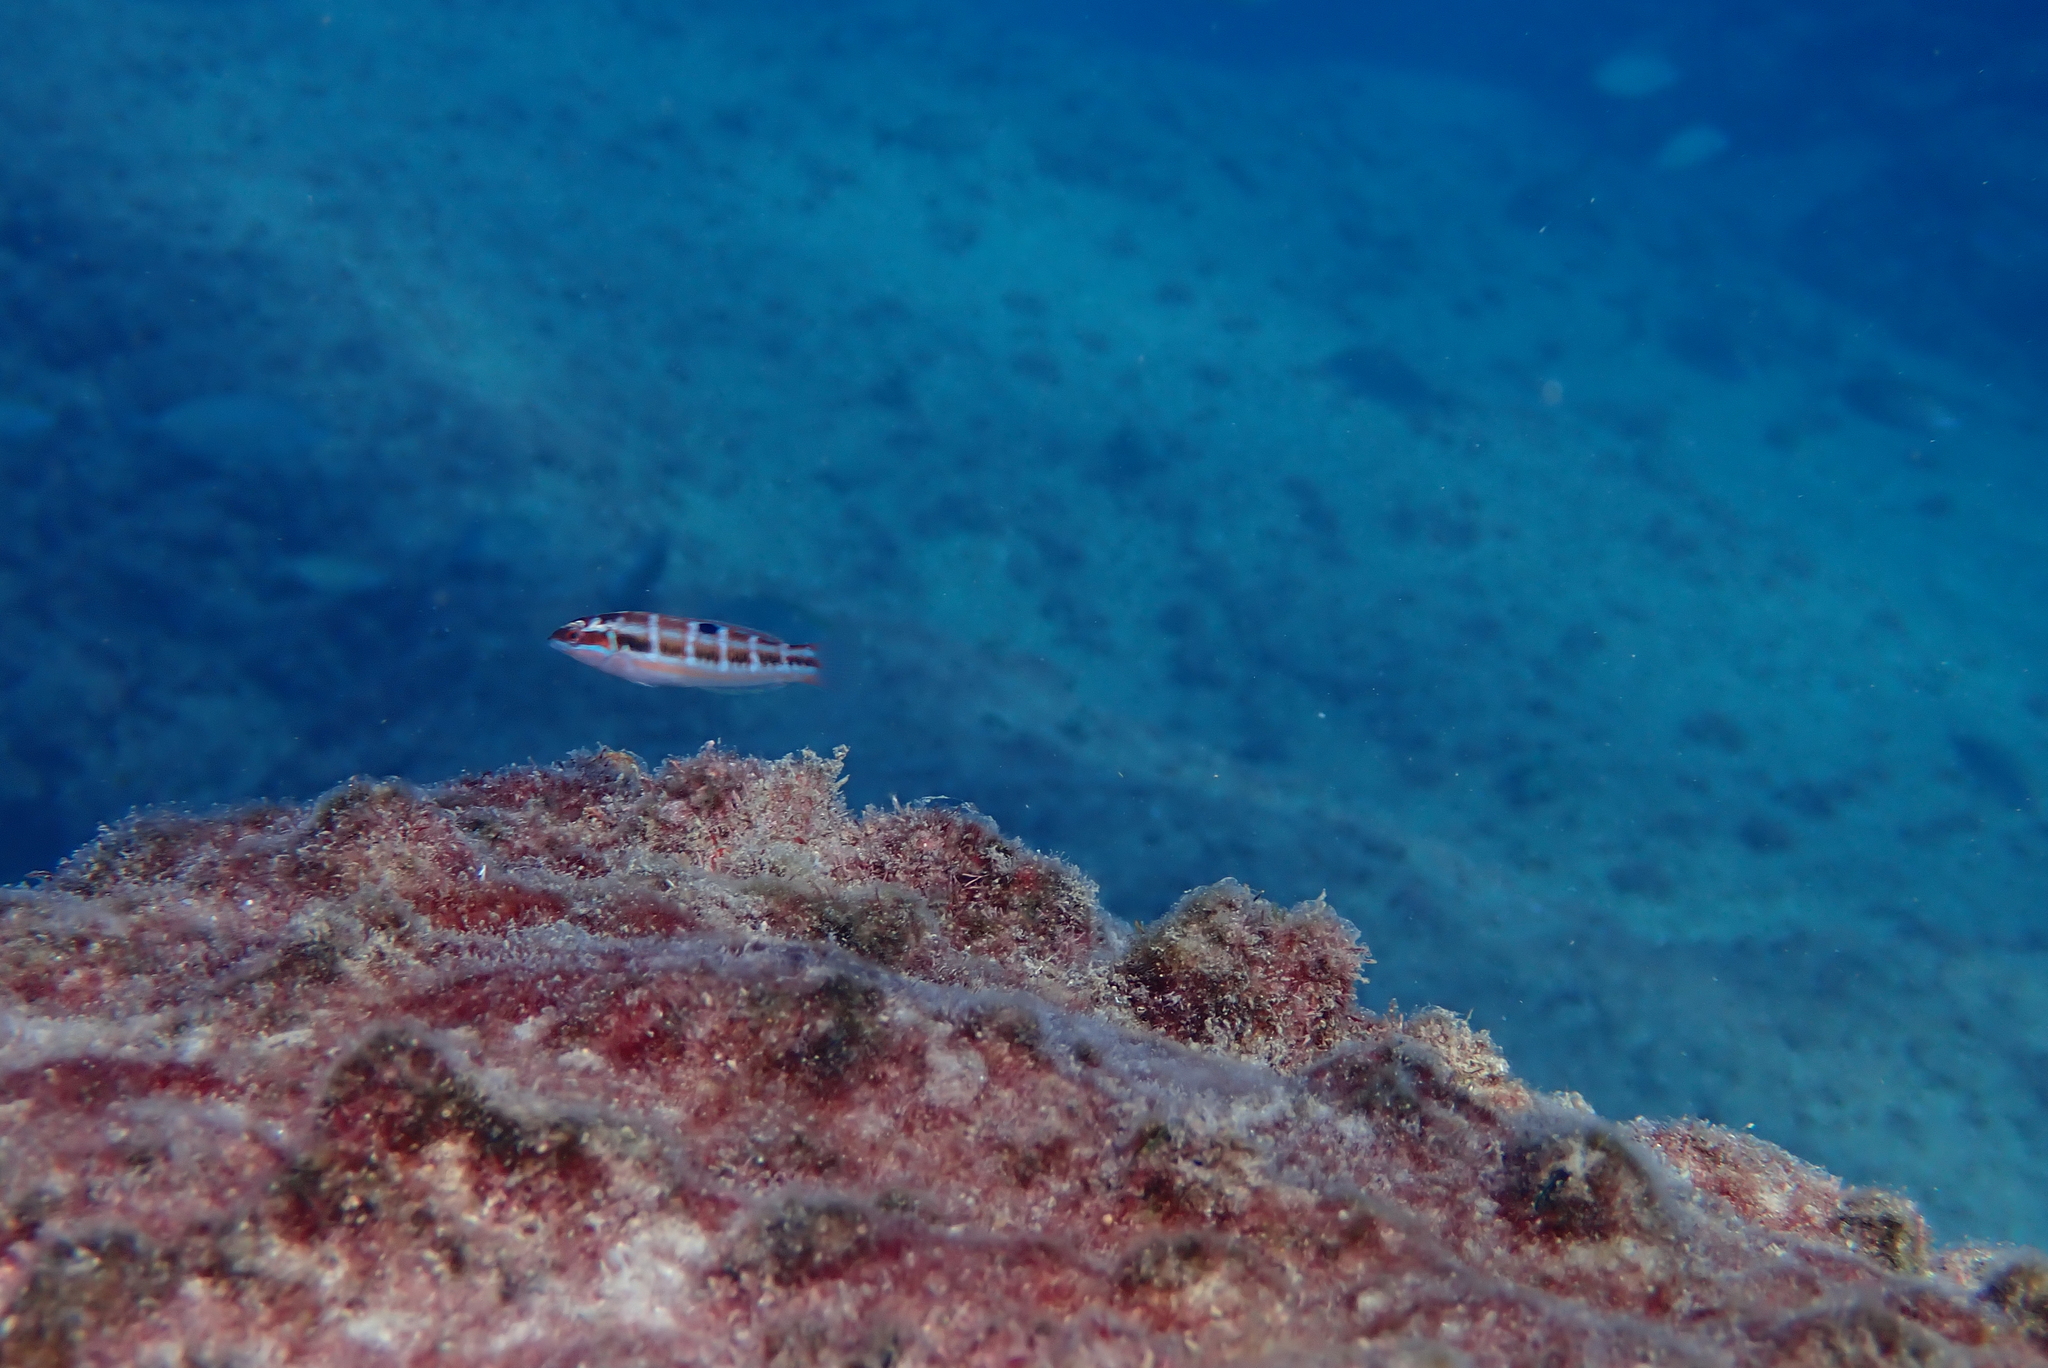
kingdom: Animalia
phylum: Chordata
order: Perciformes
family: Labridae
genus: Thalassoma
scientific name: Thalassoma pavo
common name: Ornate wrasse
